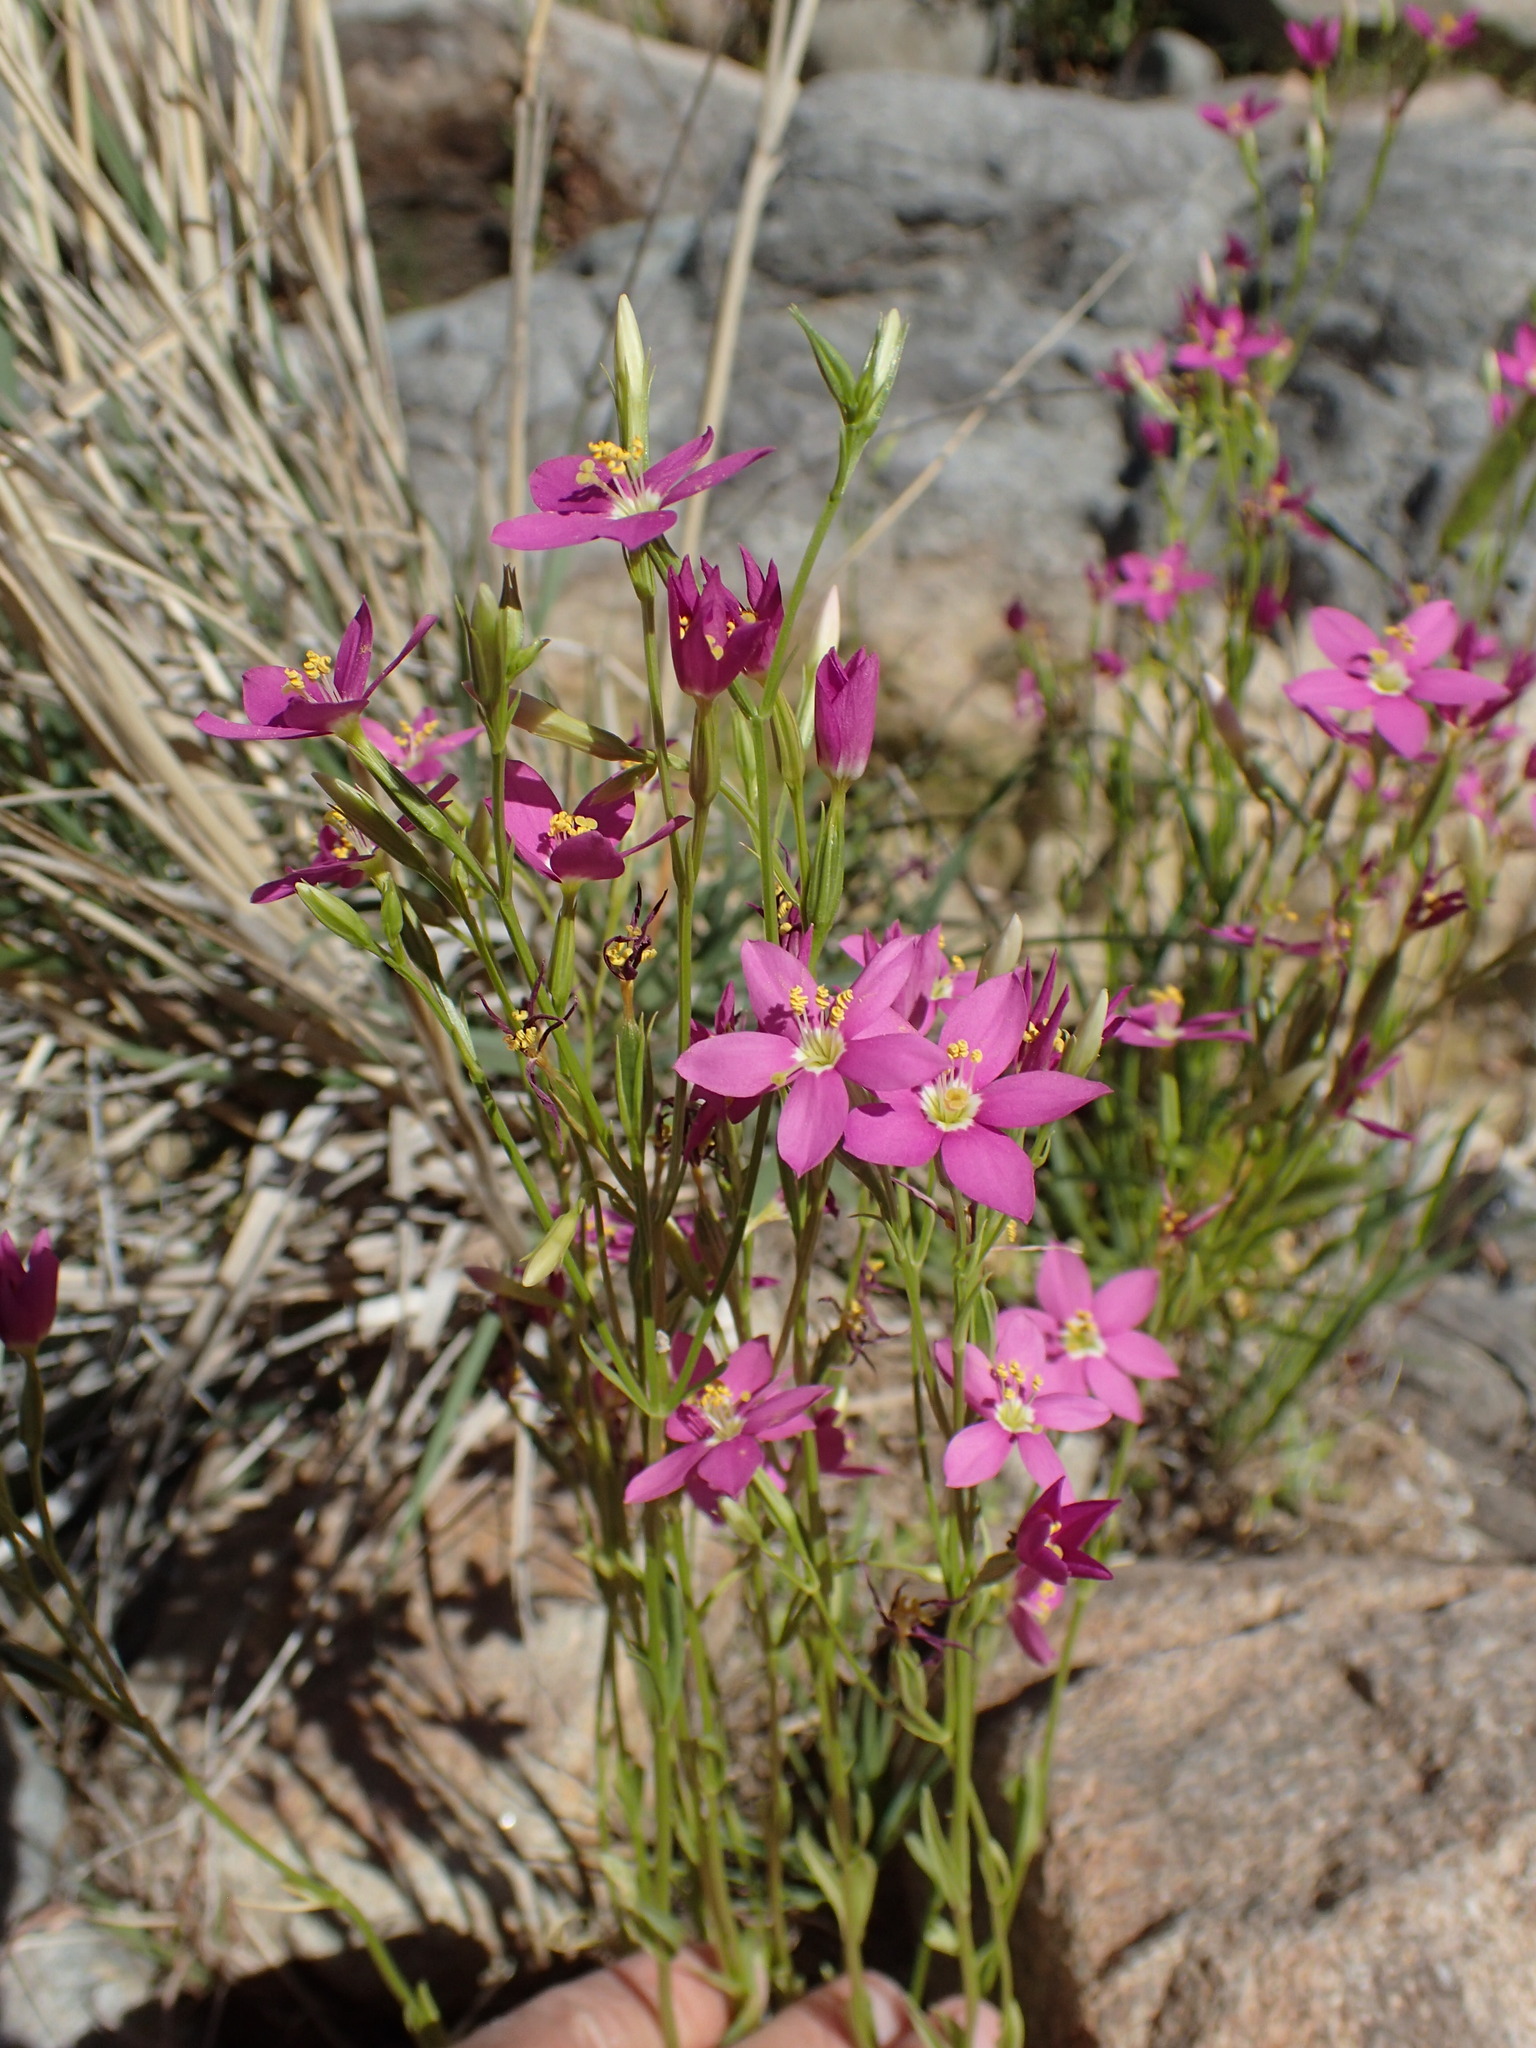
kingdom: Plantae
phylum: Tracheophyta
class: Magnoliopsida
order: Gentianales
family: Gentianaceae
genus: Zeltnera
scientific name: Zeltnera arizonica
